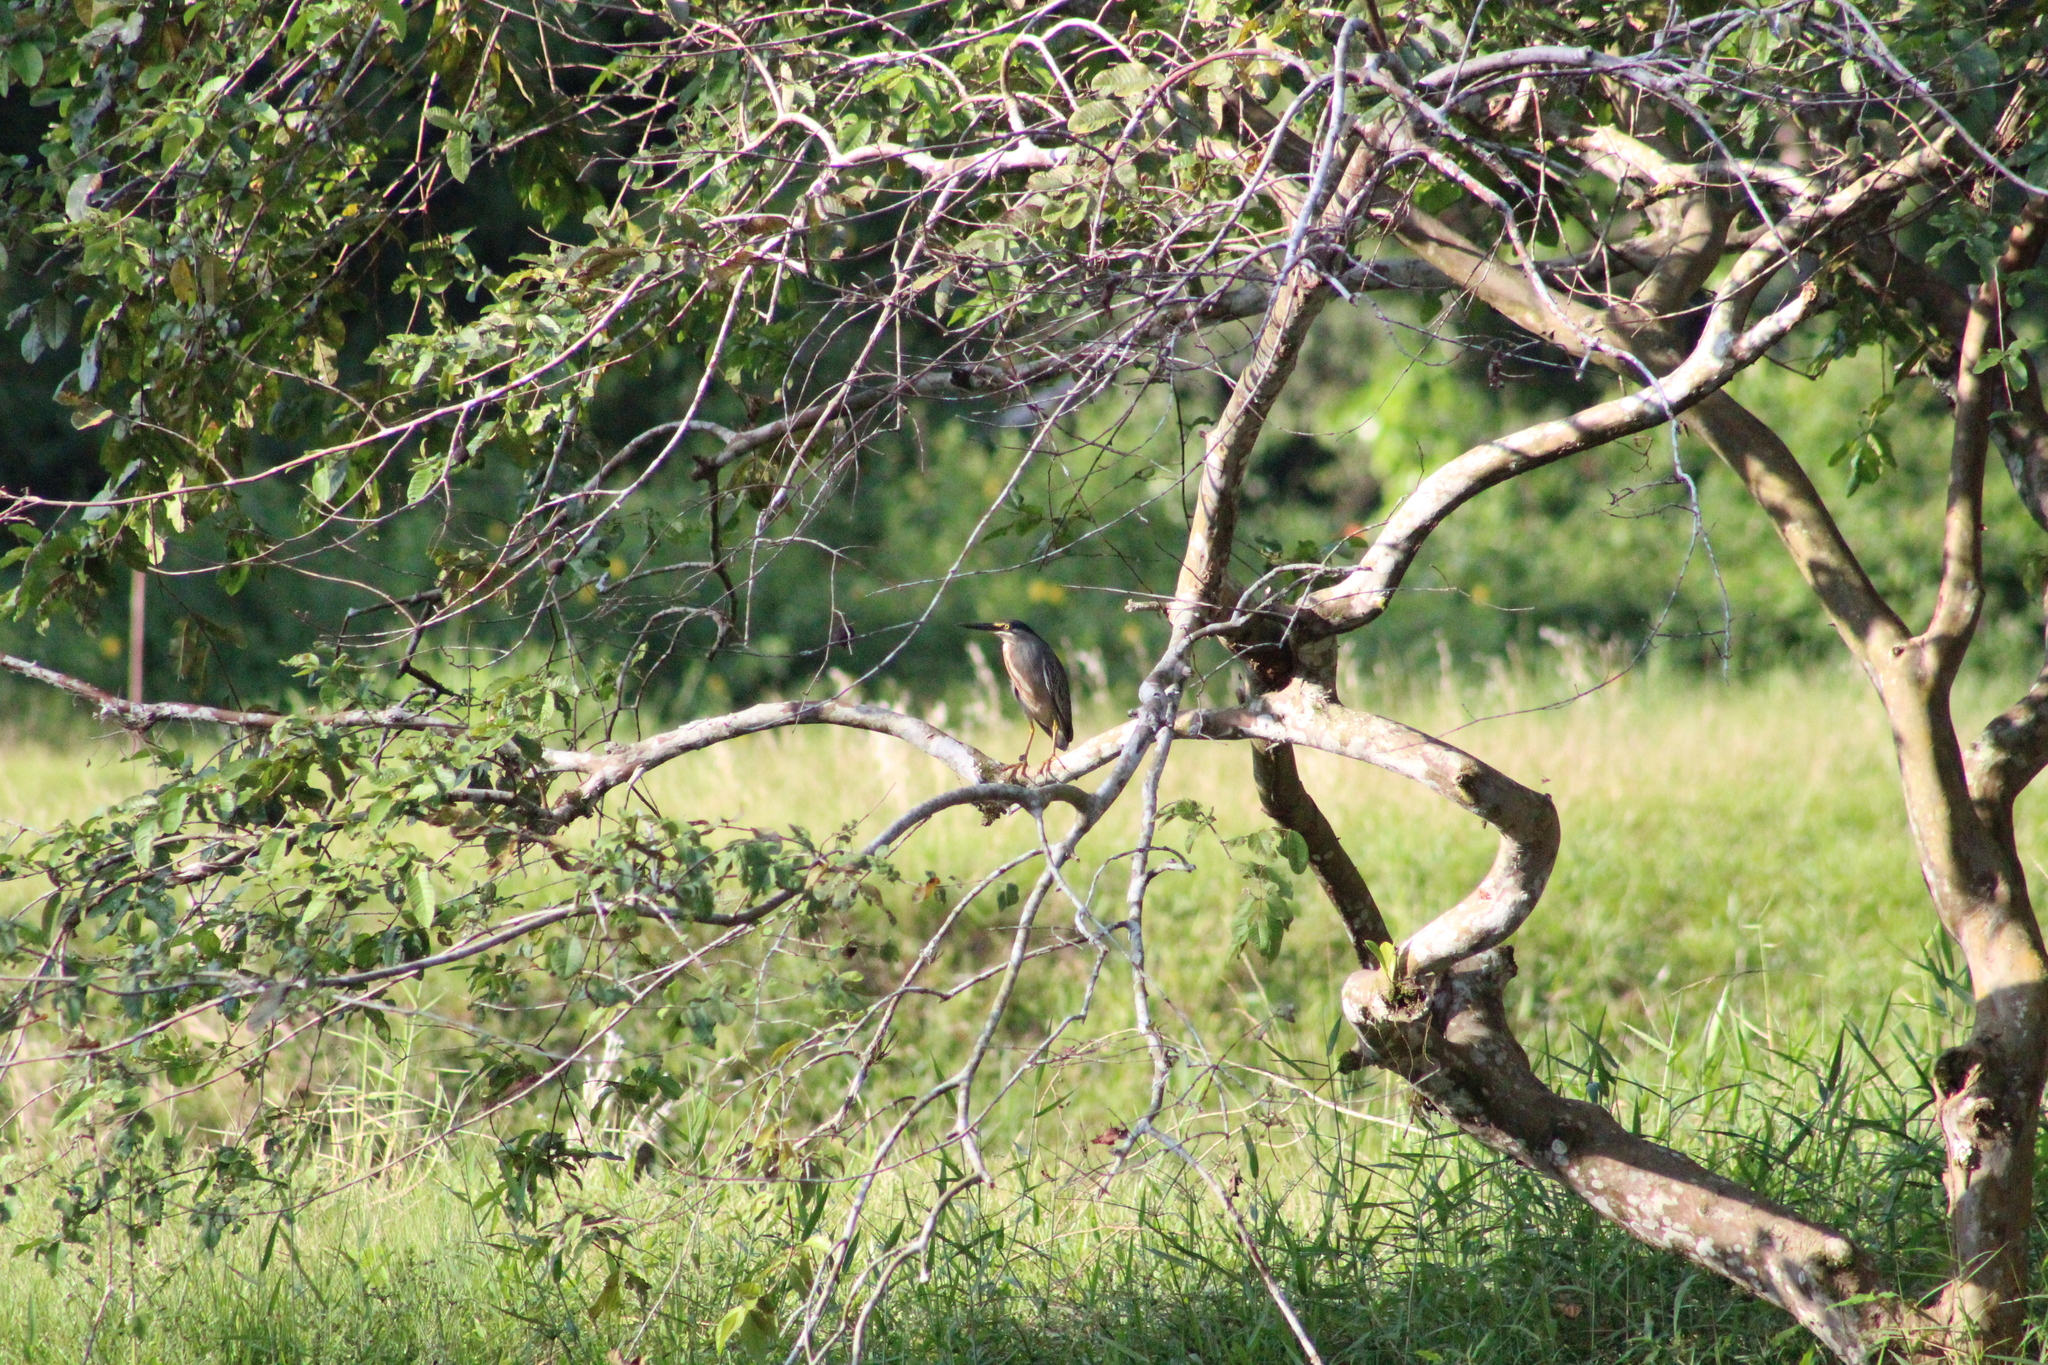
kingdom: Animalia
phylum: Chordata
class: Aves
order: Pelecaniformes
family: Ardeidae
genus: Butorides
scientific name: Butorides striata
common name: Striated heron
